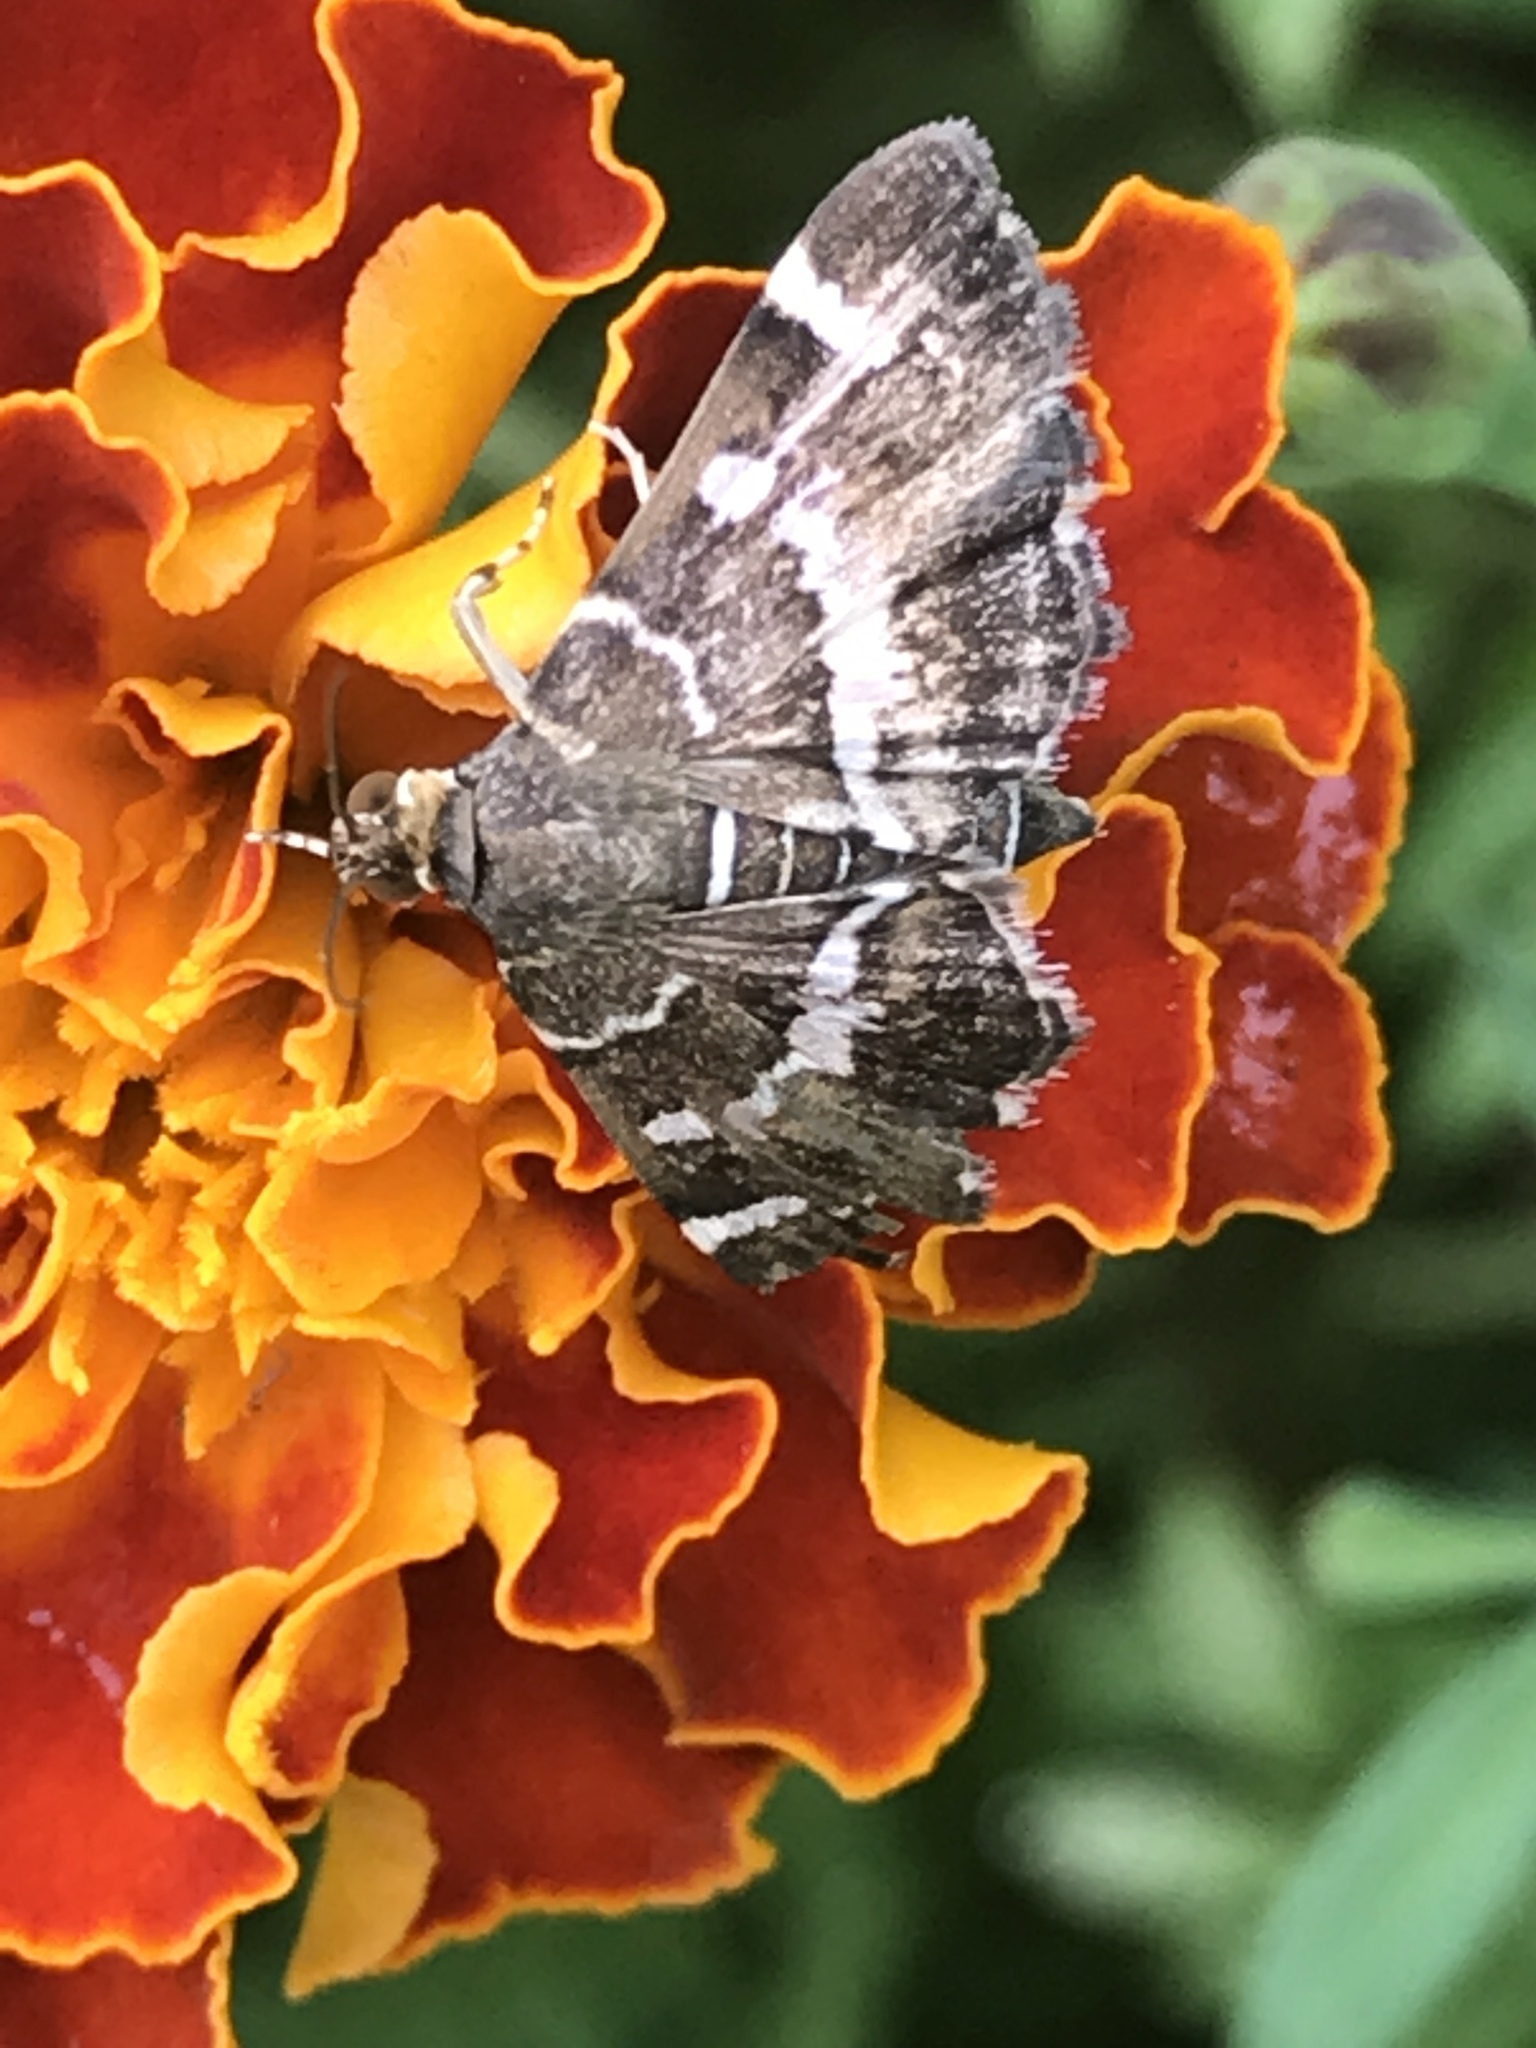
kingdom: Animalia
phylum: Arthropoda
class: Insecta
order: Lepidoptera
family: Crambidae
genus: Hymenia
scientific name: Hymenia perspectalis
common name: Spotted beet webworm
